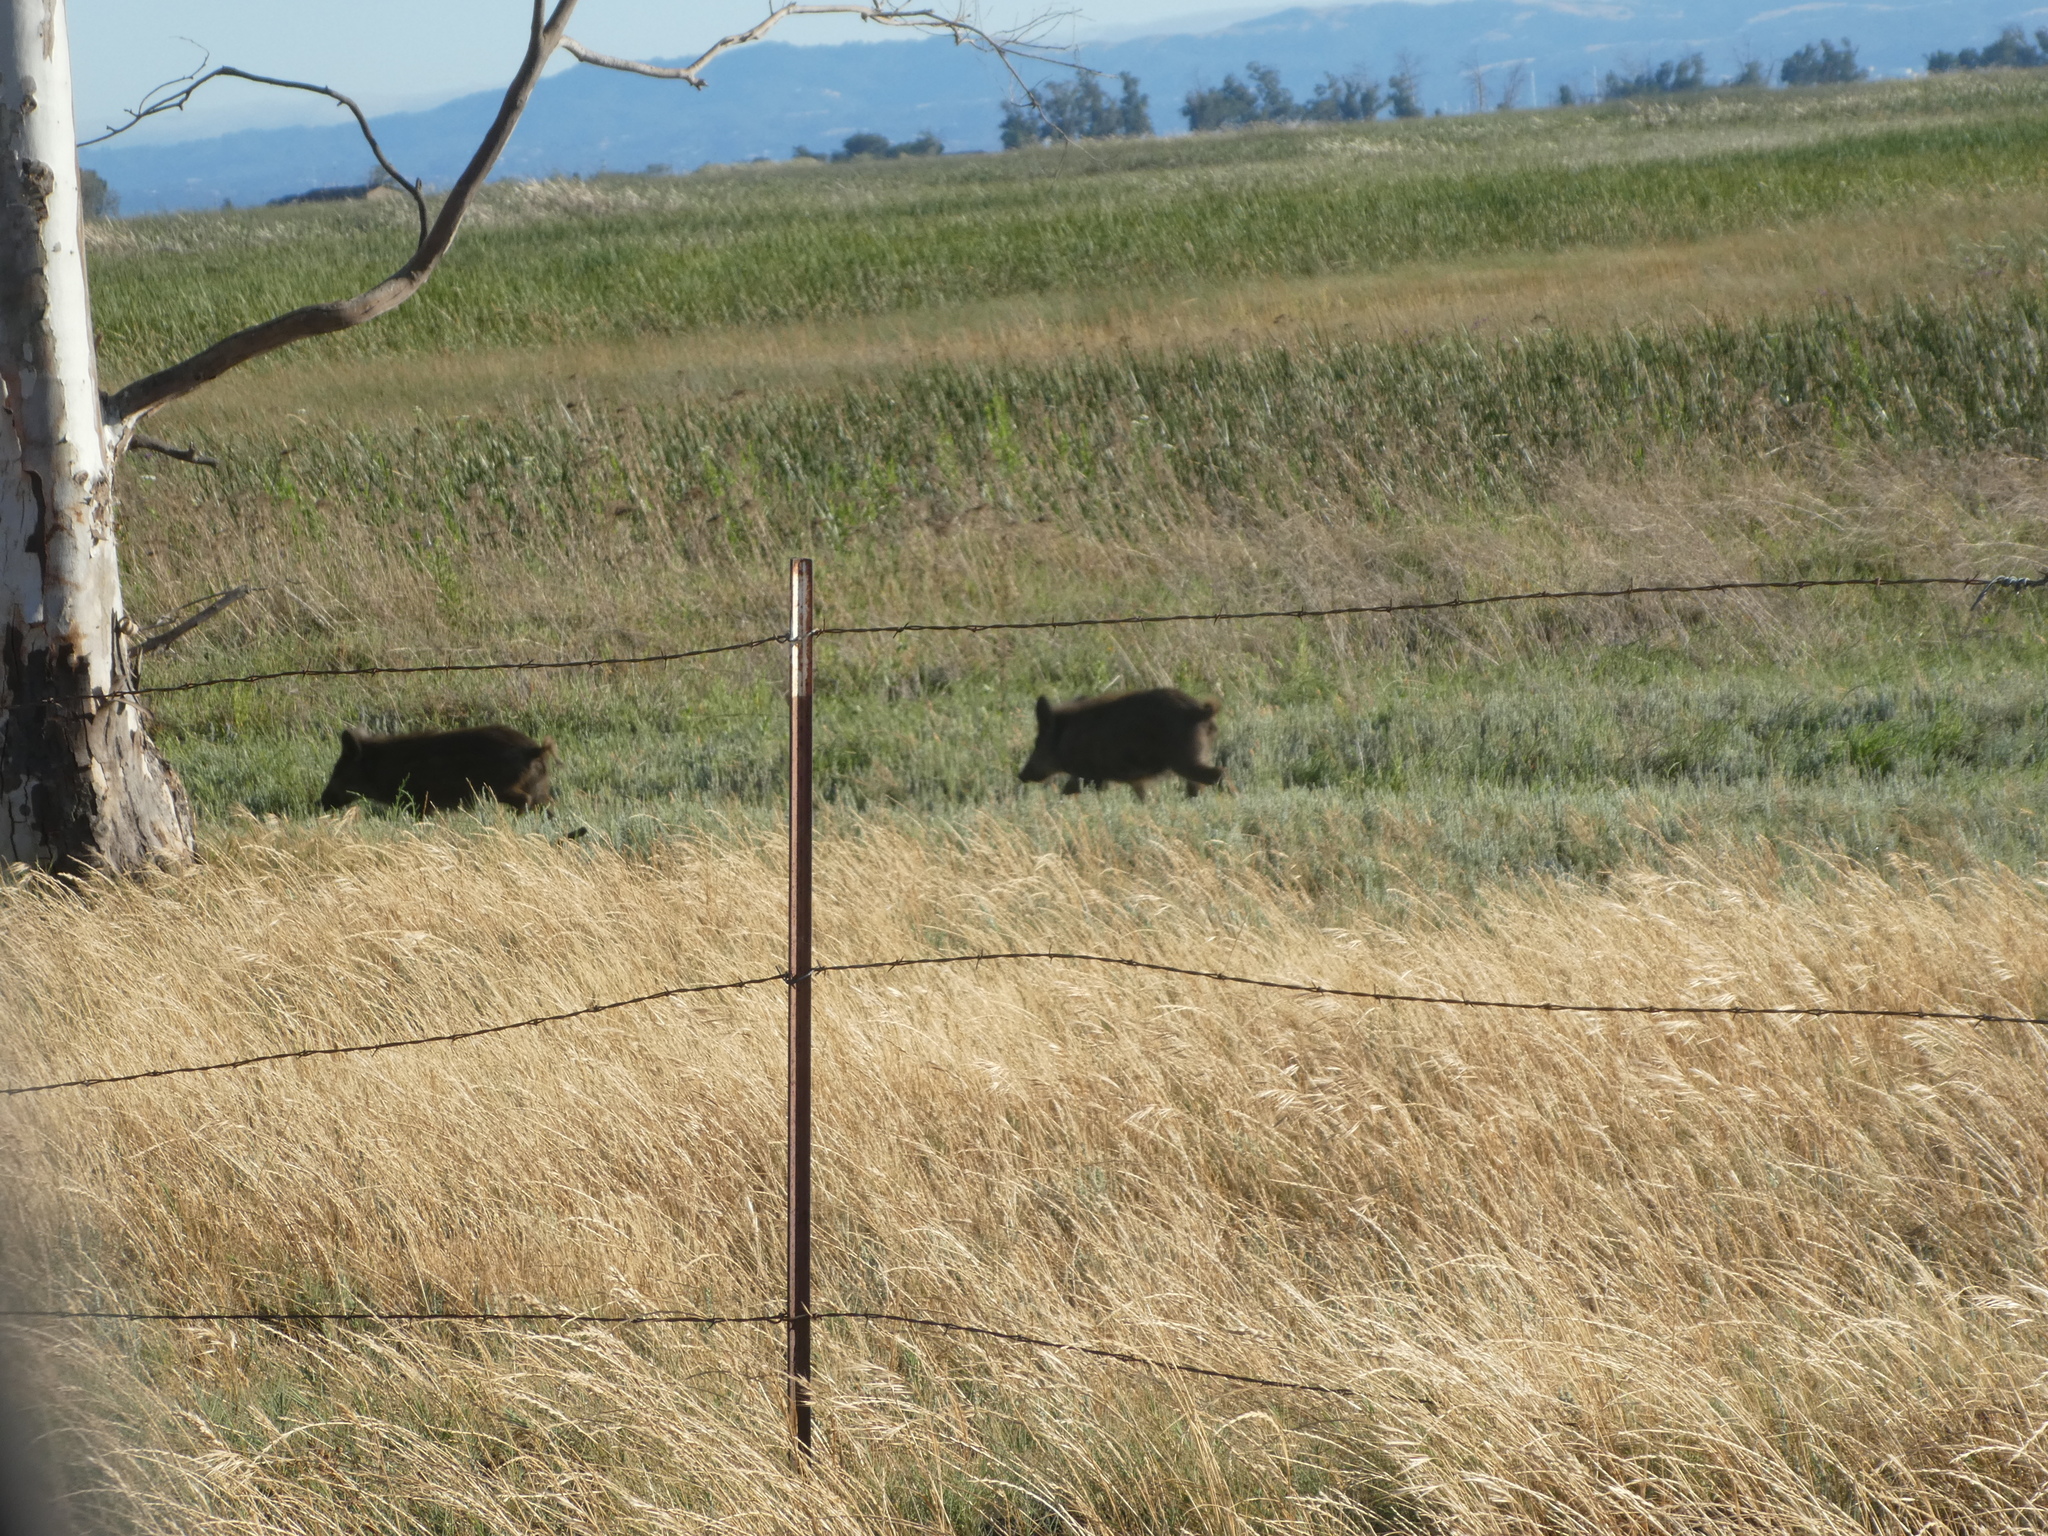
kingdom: Animalia
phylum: Chordata
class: Mammalia
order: Artiodactyla
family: Suidae
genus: Sus
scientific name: Sus scrofa
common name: Wild boar
